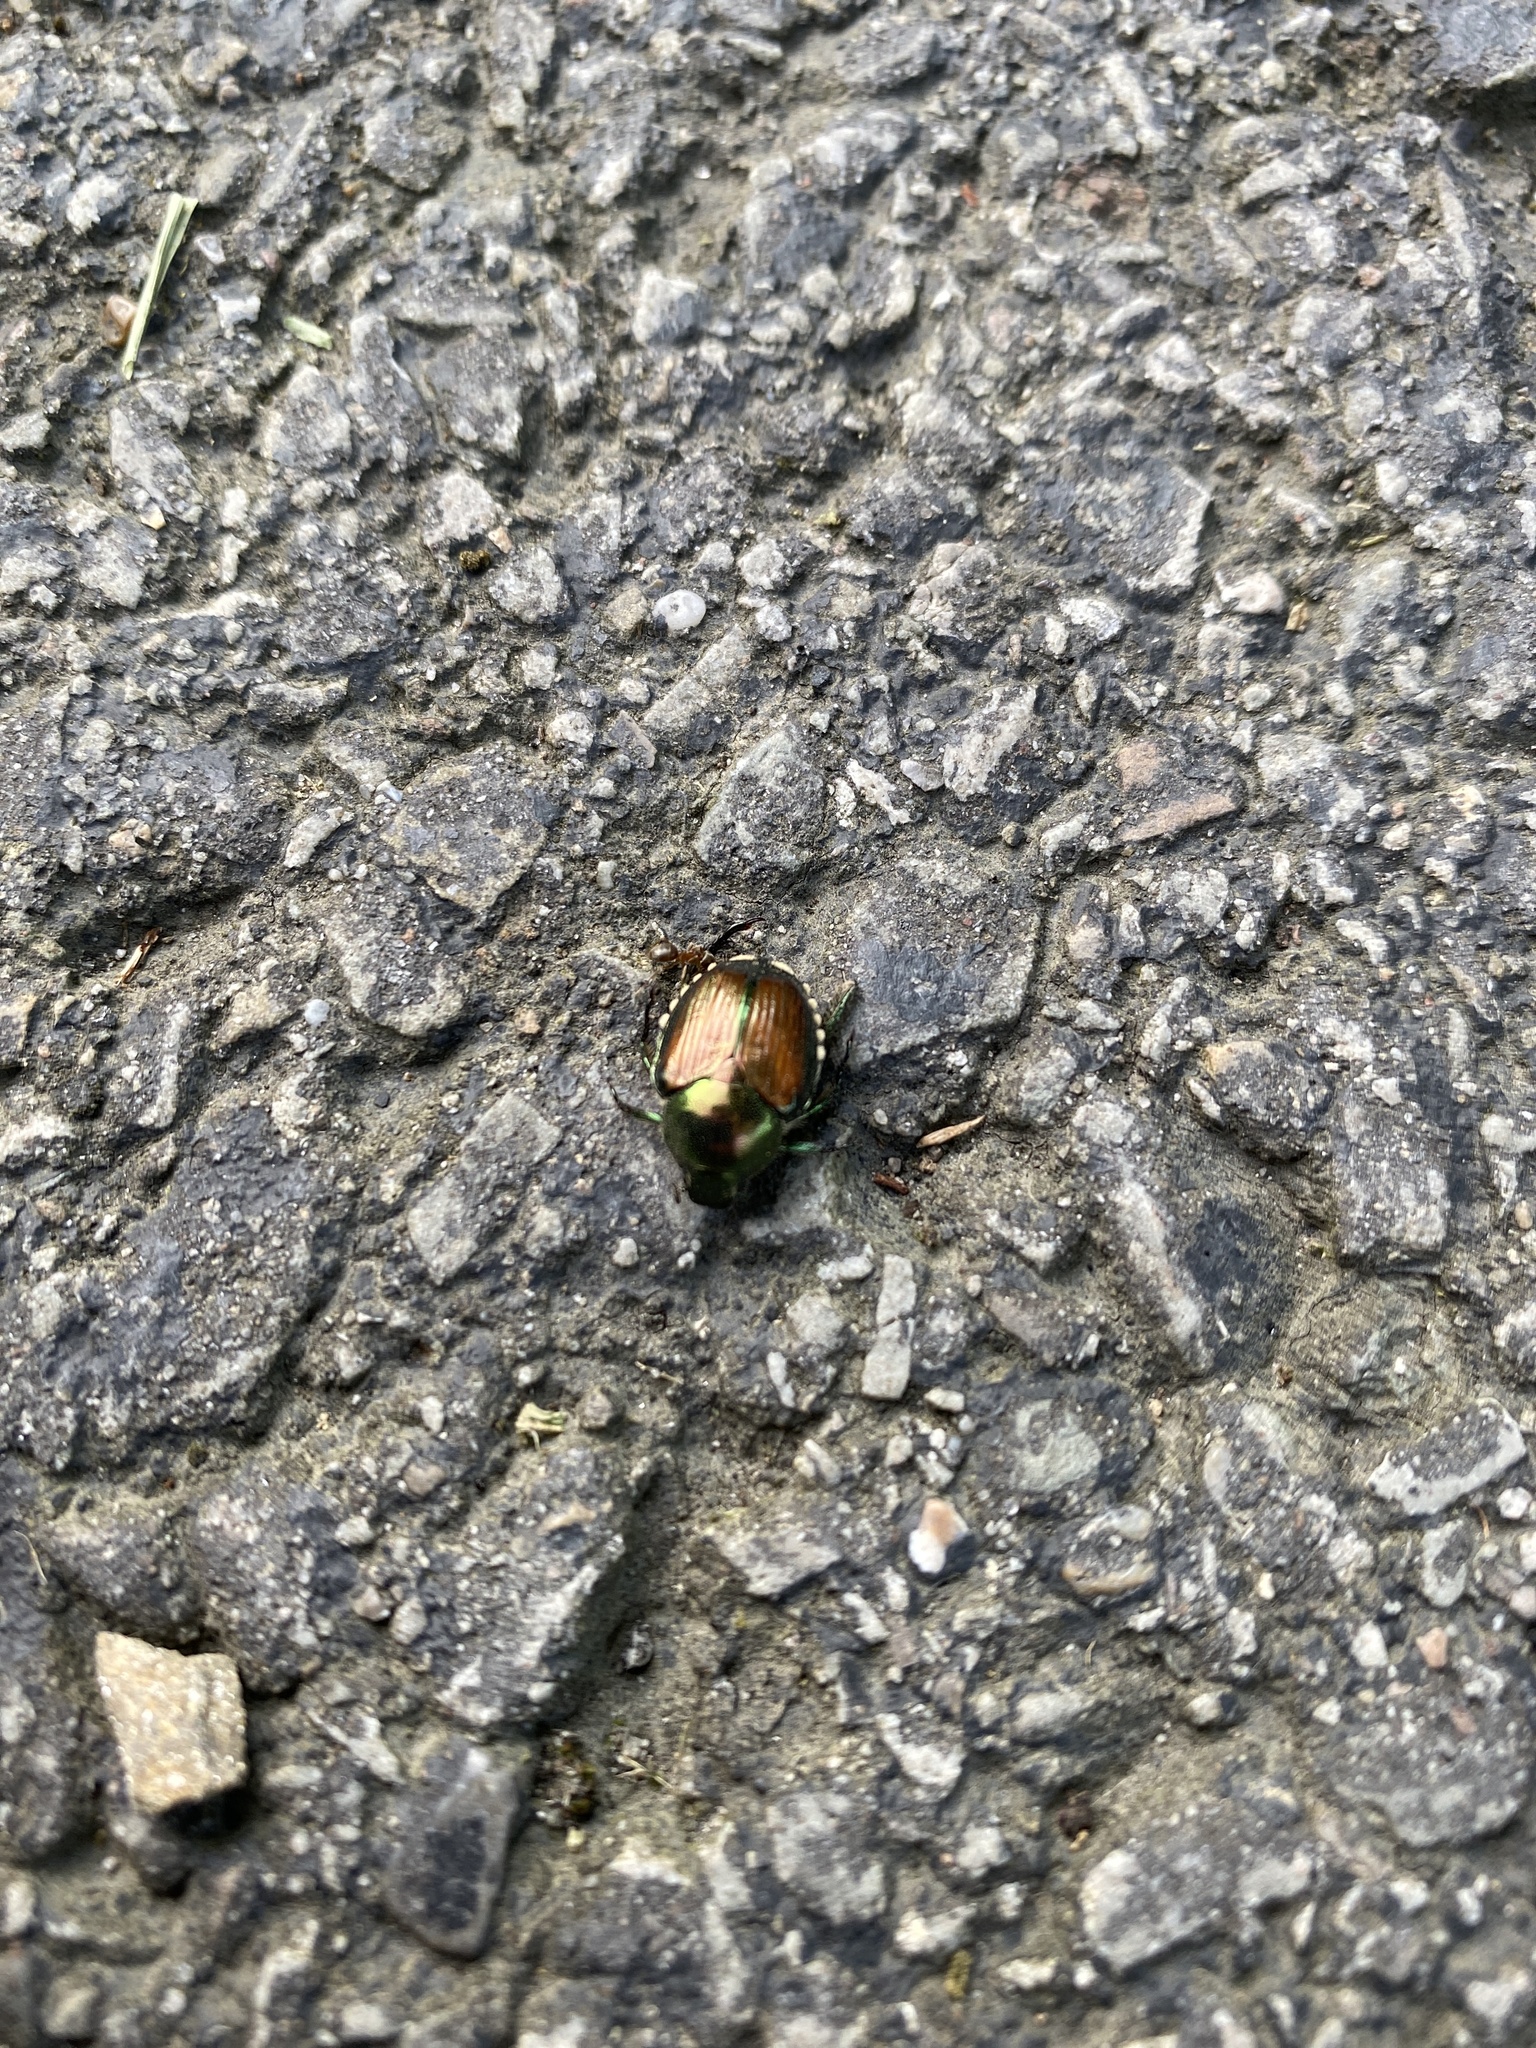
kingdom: Animalia
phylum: Arthropoda
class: Insecta
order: Coleoptera
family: Scarabaeidae
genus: Popillia
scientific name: Popillia japonica
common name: Japanese beetle
